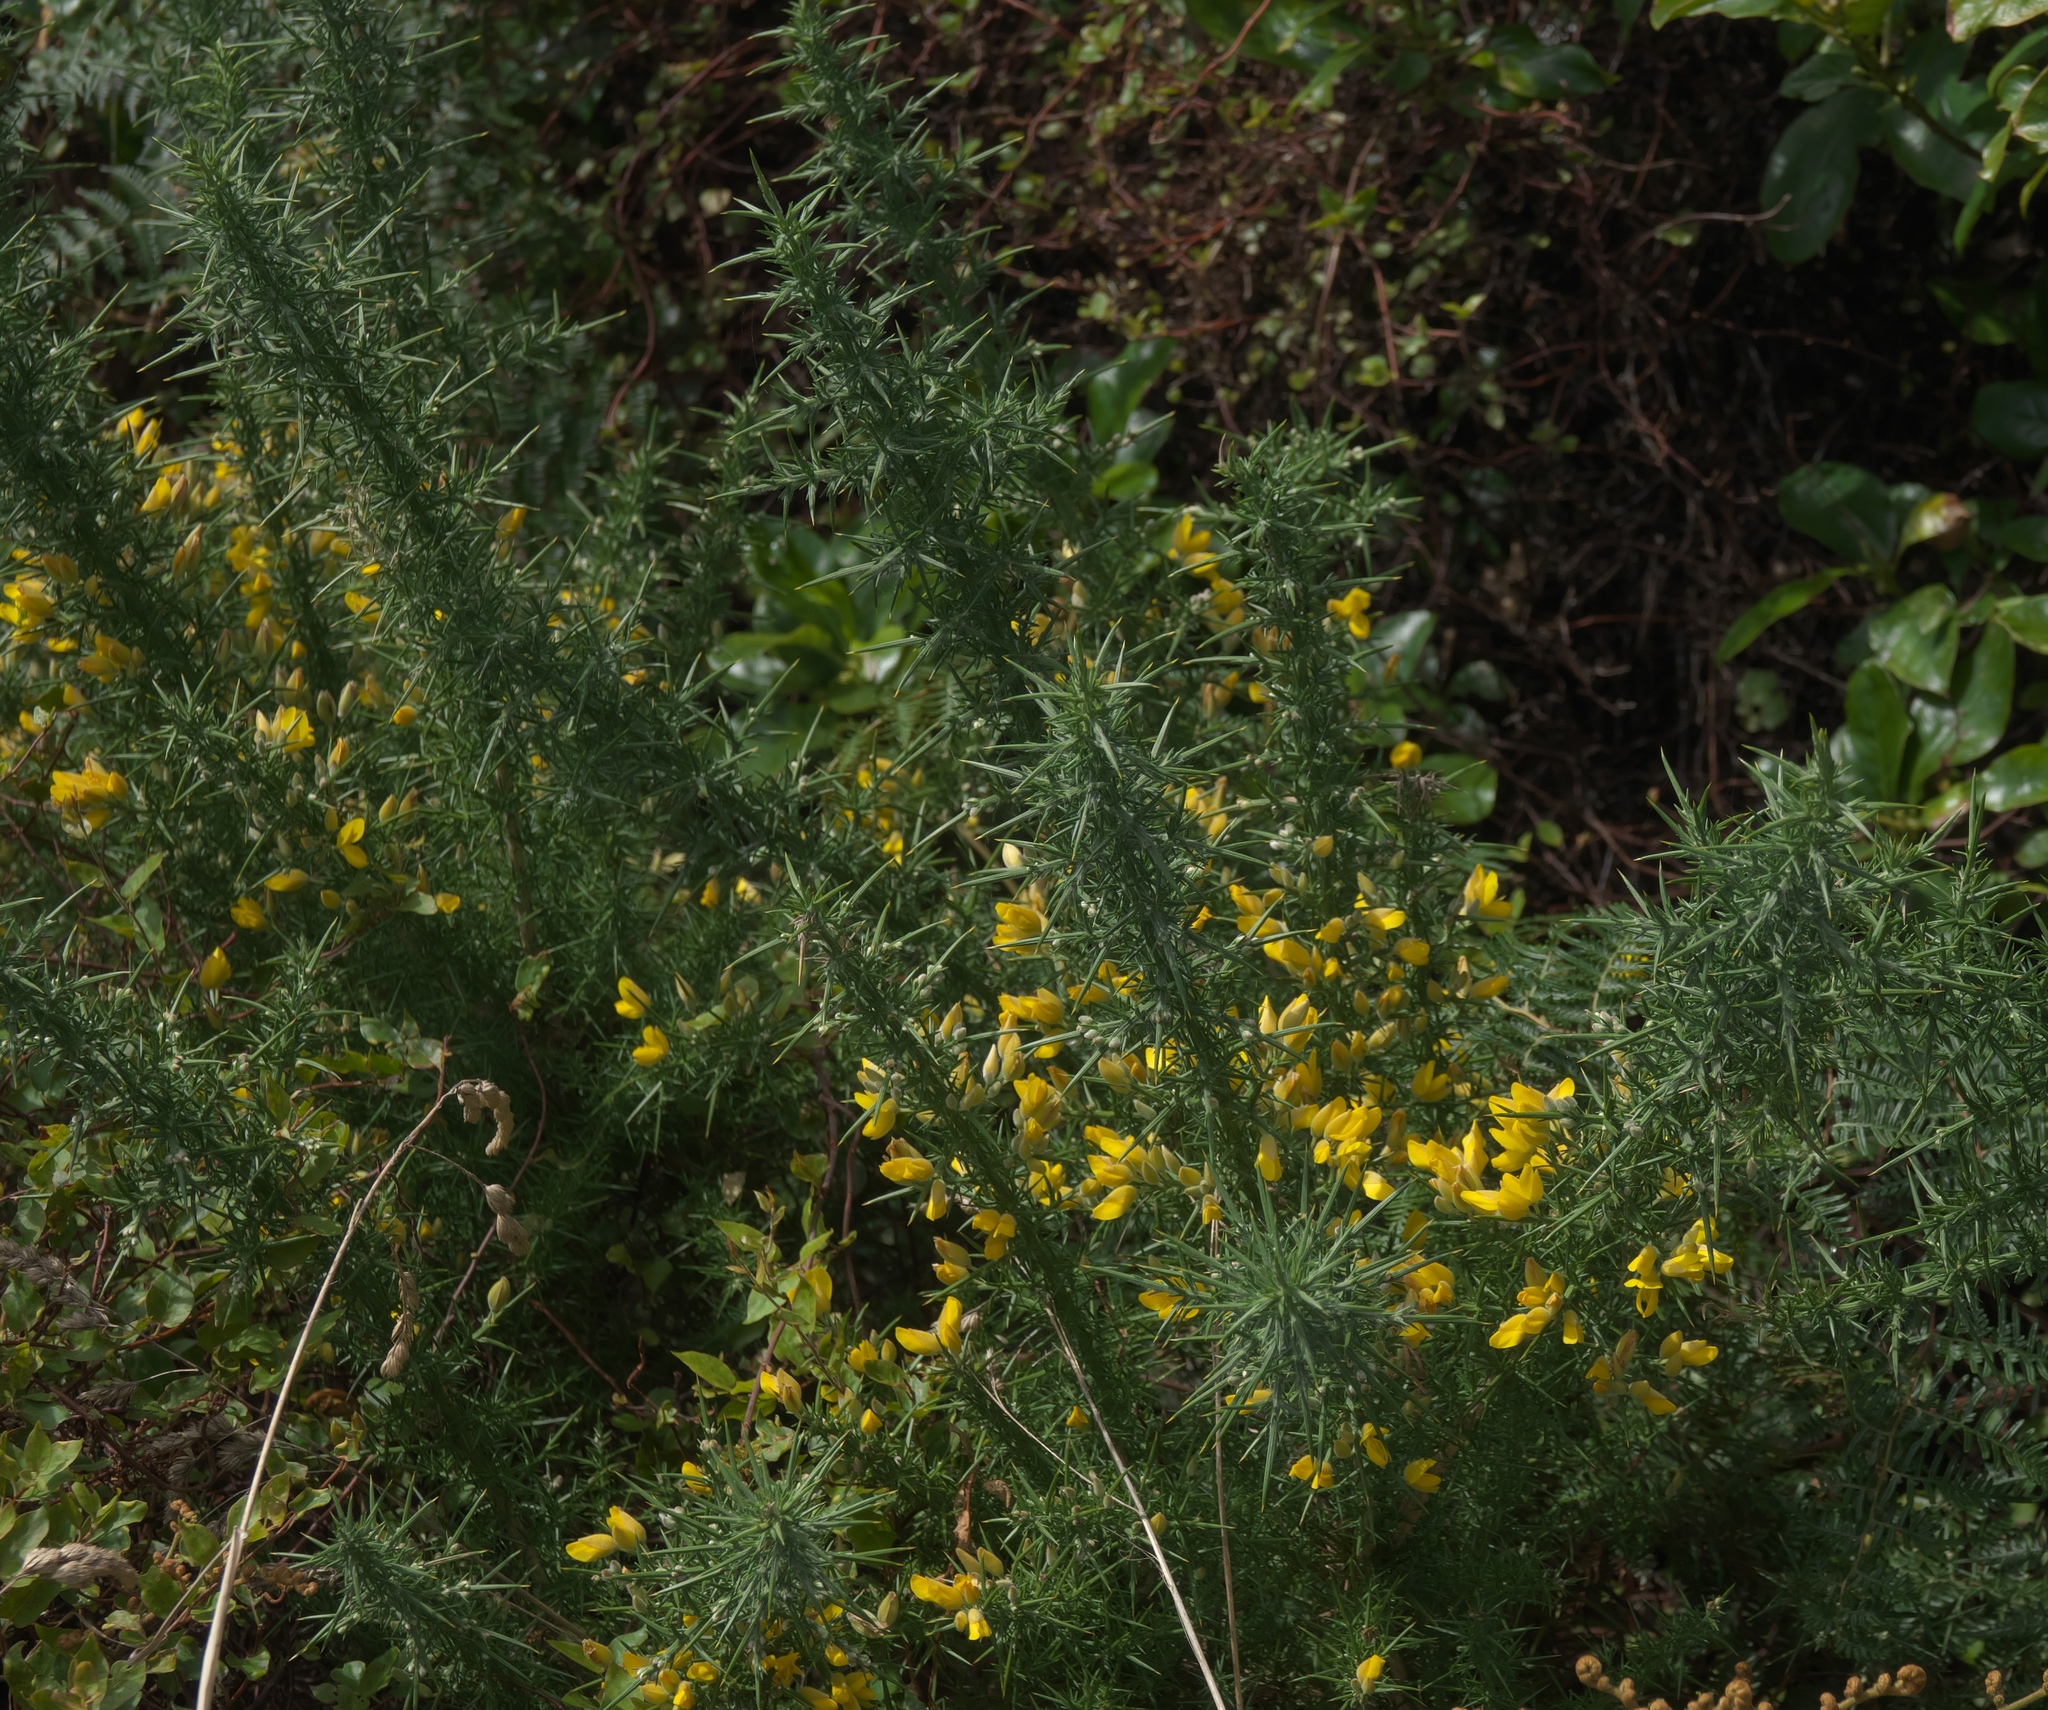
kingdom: Plantae
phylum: Tracheophyta
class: Magnoliopsida
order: Fabales
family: Fabaceae
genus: Ulex
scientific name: Ulex europaeus
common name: Common gorse
